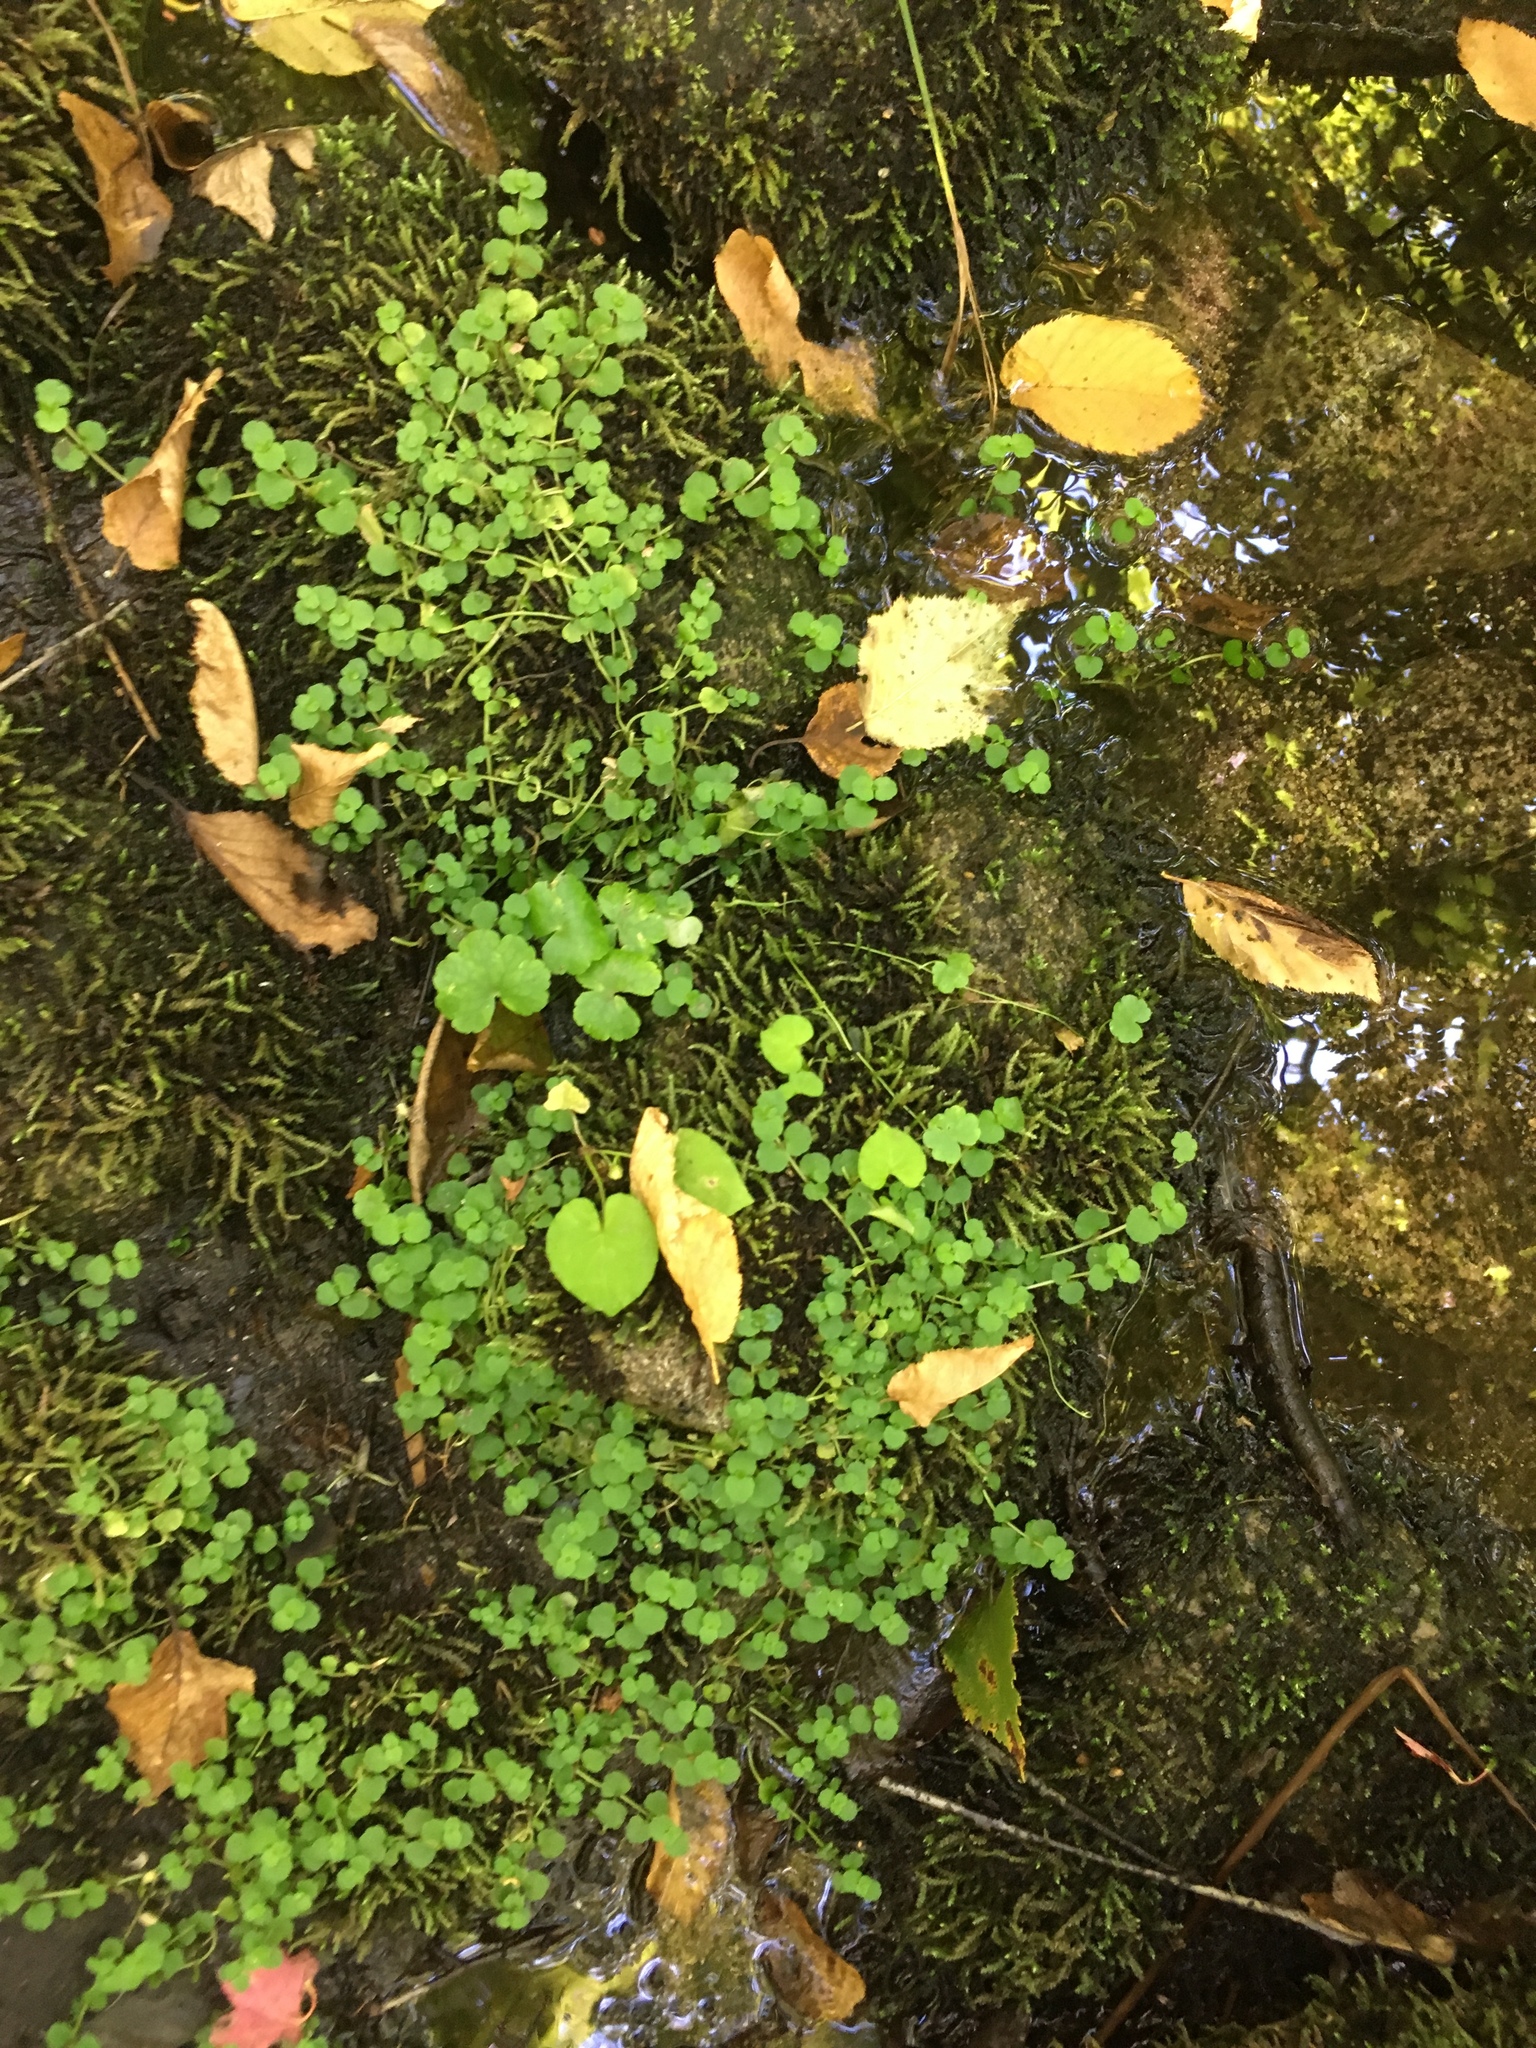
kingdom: Plantae
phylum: Tracheophyta
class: Magnoliopsida
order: Saxifragales
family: Saxifragaceae
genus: Chrysosplenium
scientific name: Chrysosplenium americanum
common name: American golden-saxifrage
